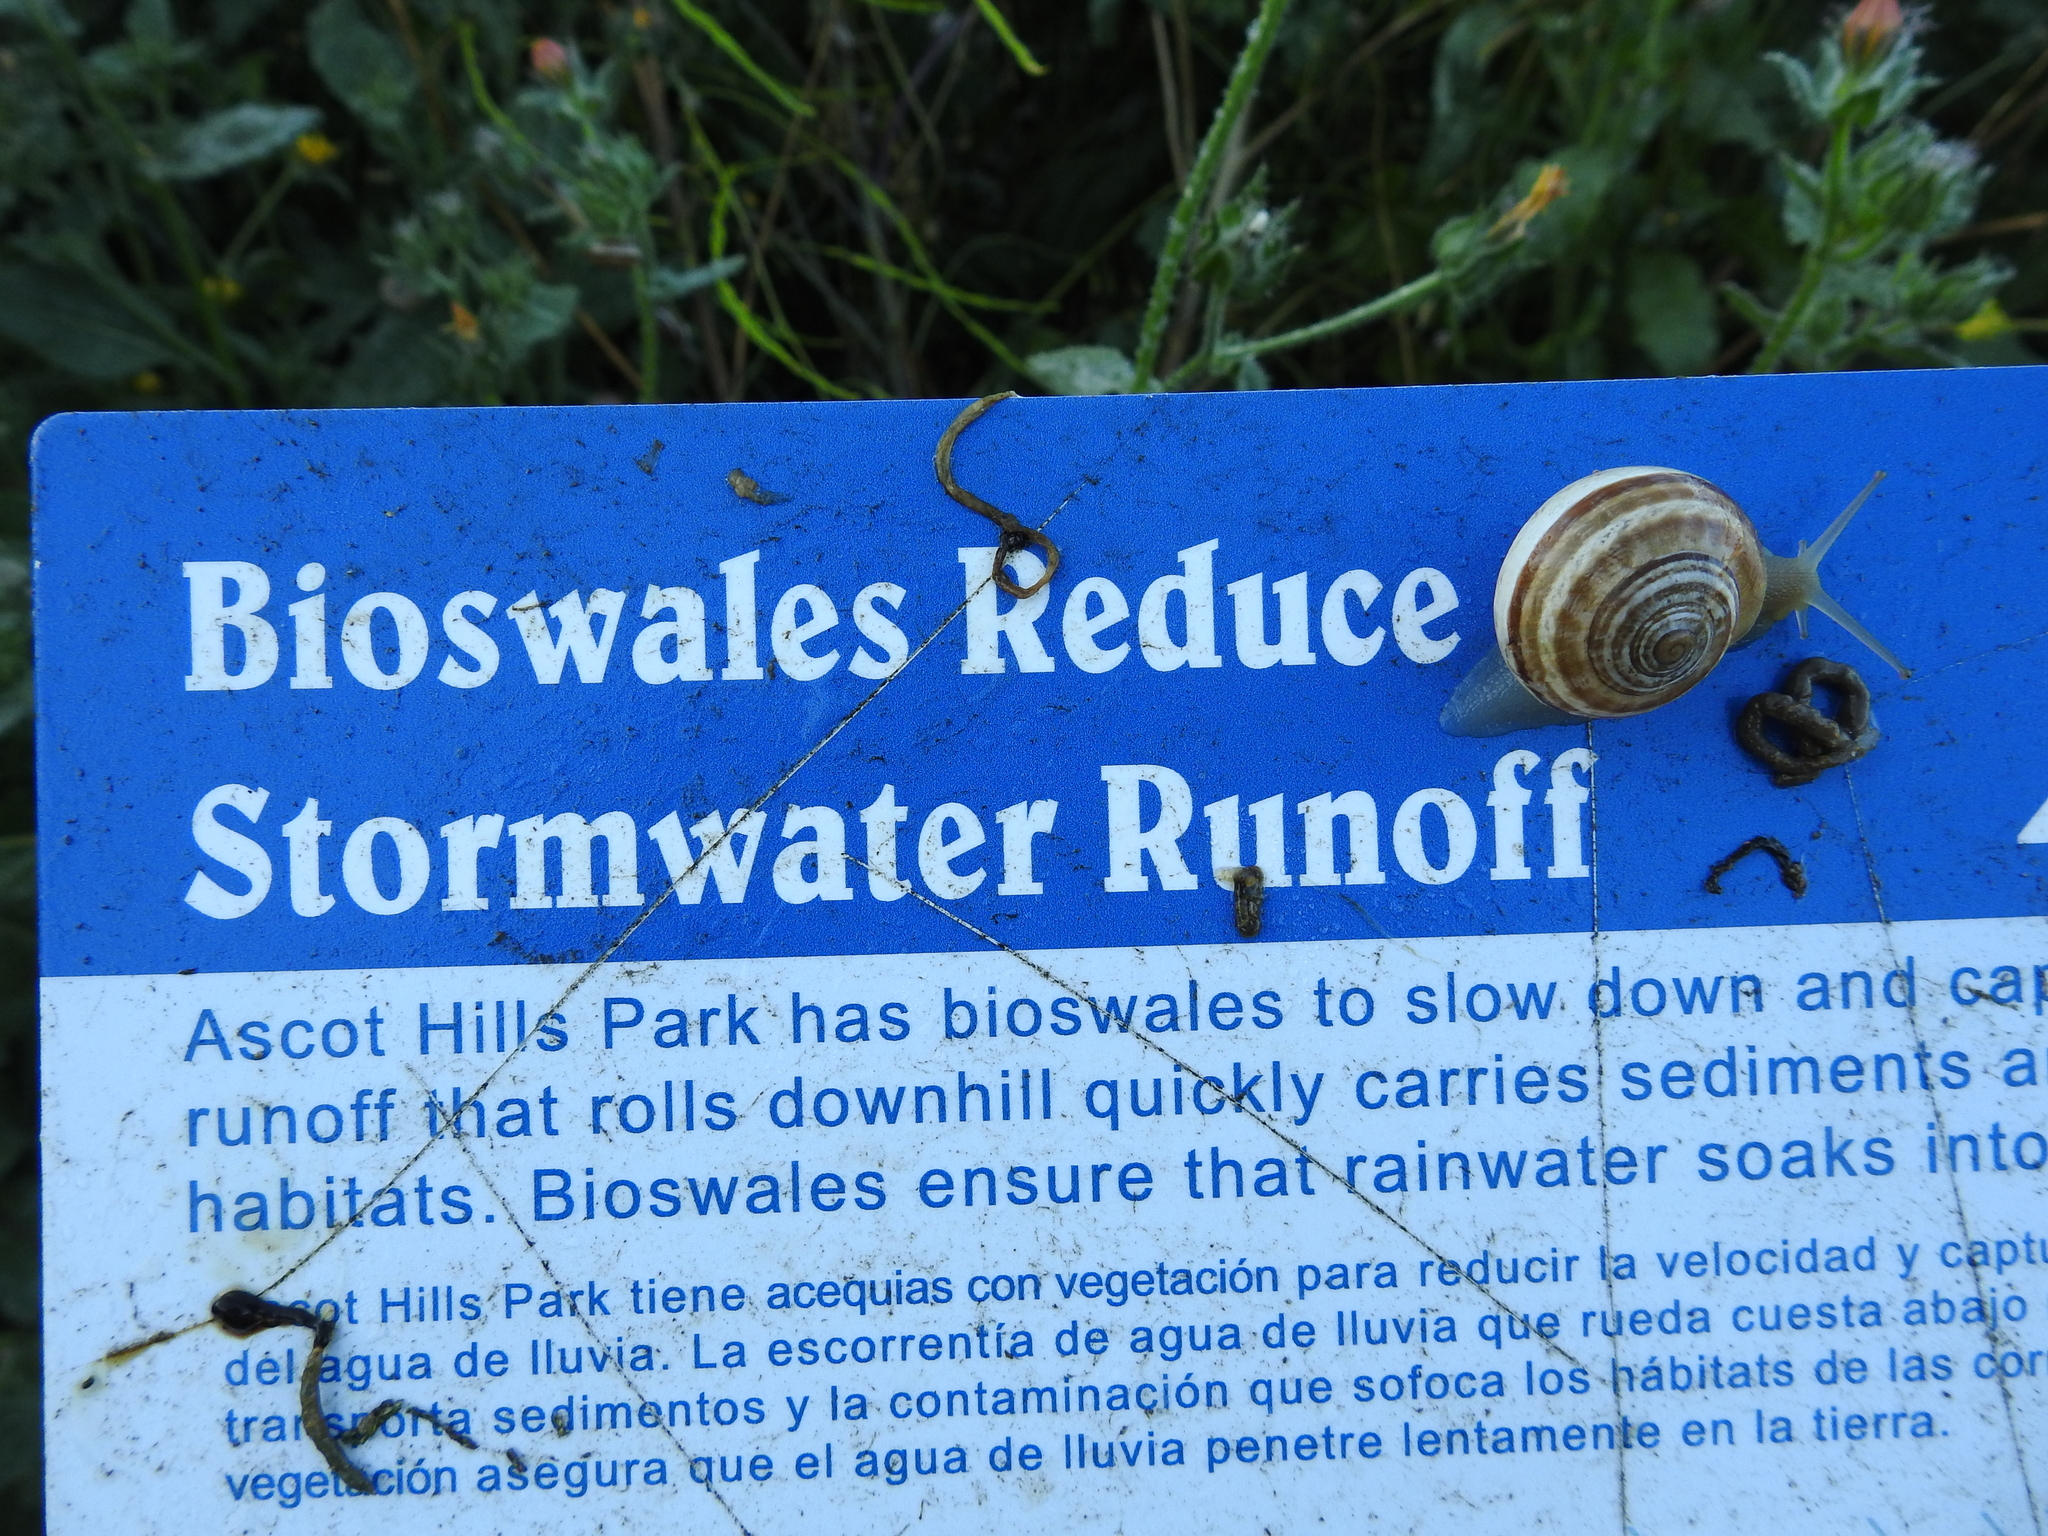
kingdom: Animalia
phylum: Mollusca
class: Gastropoda
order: Stylommatophora
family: Helicidae
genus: Otala
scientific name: Otala lactea
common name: Milk snail
